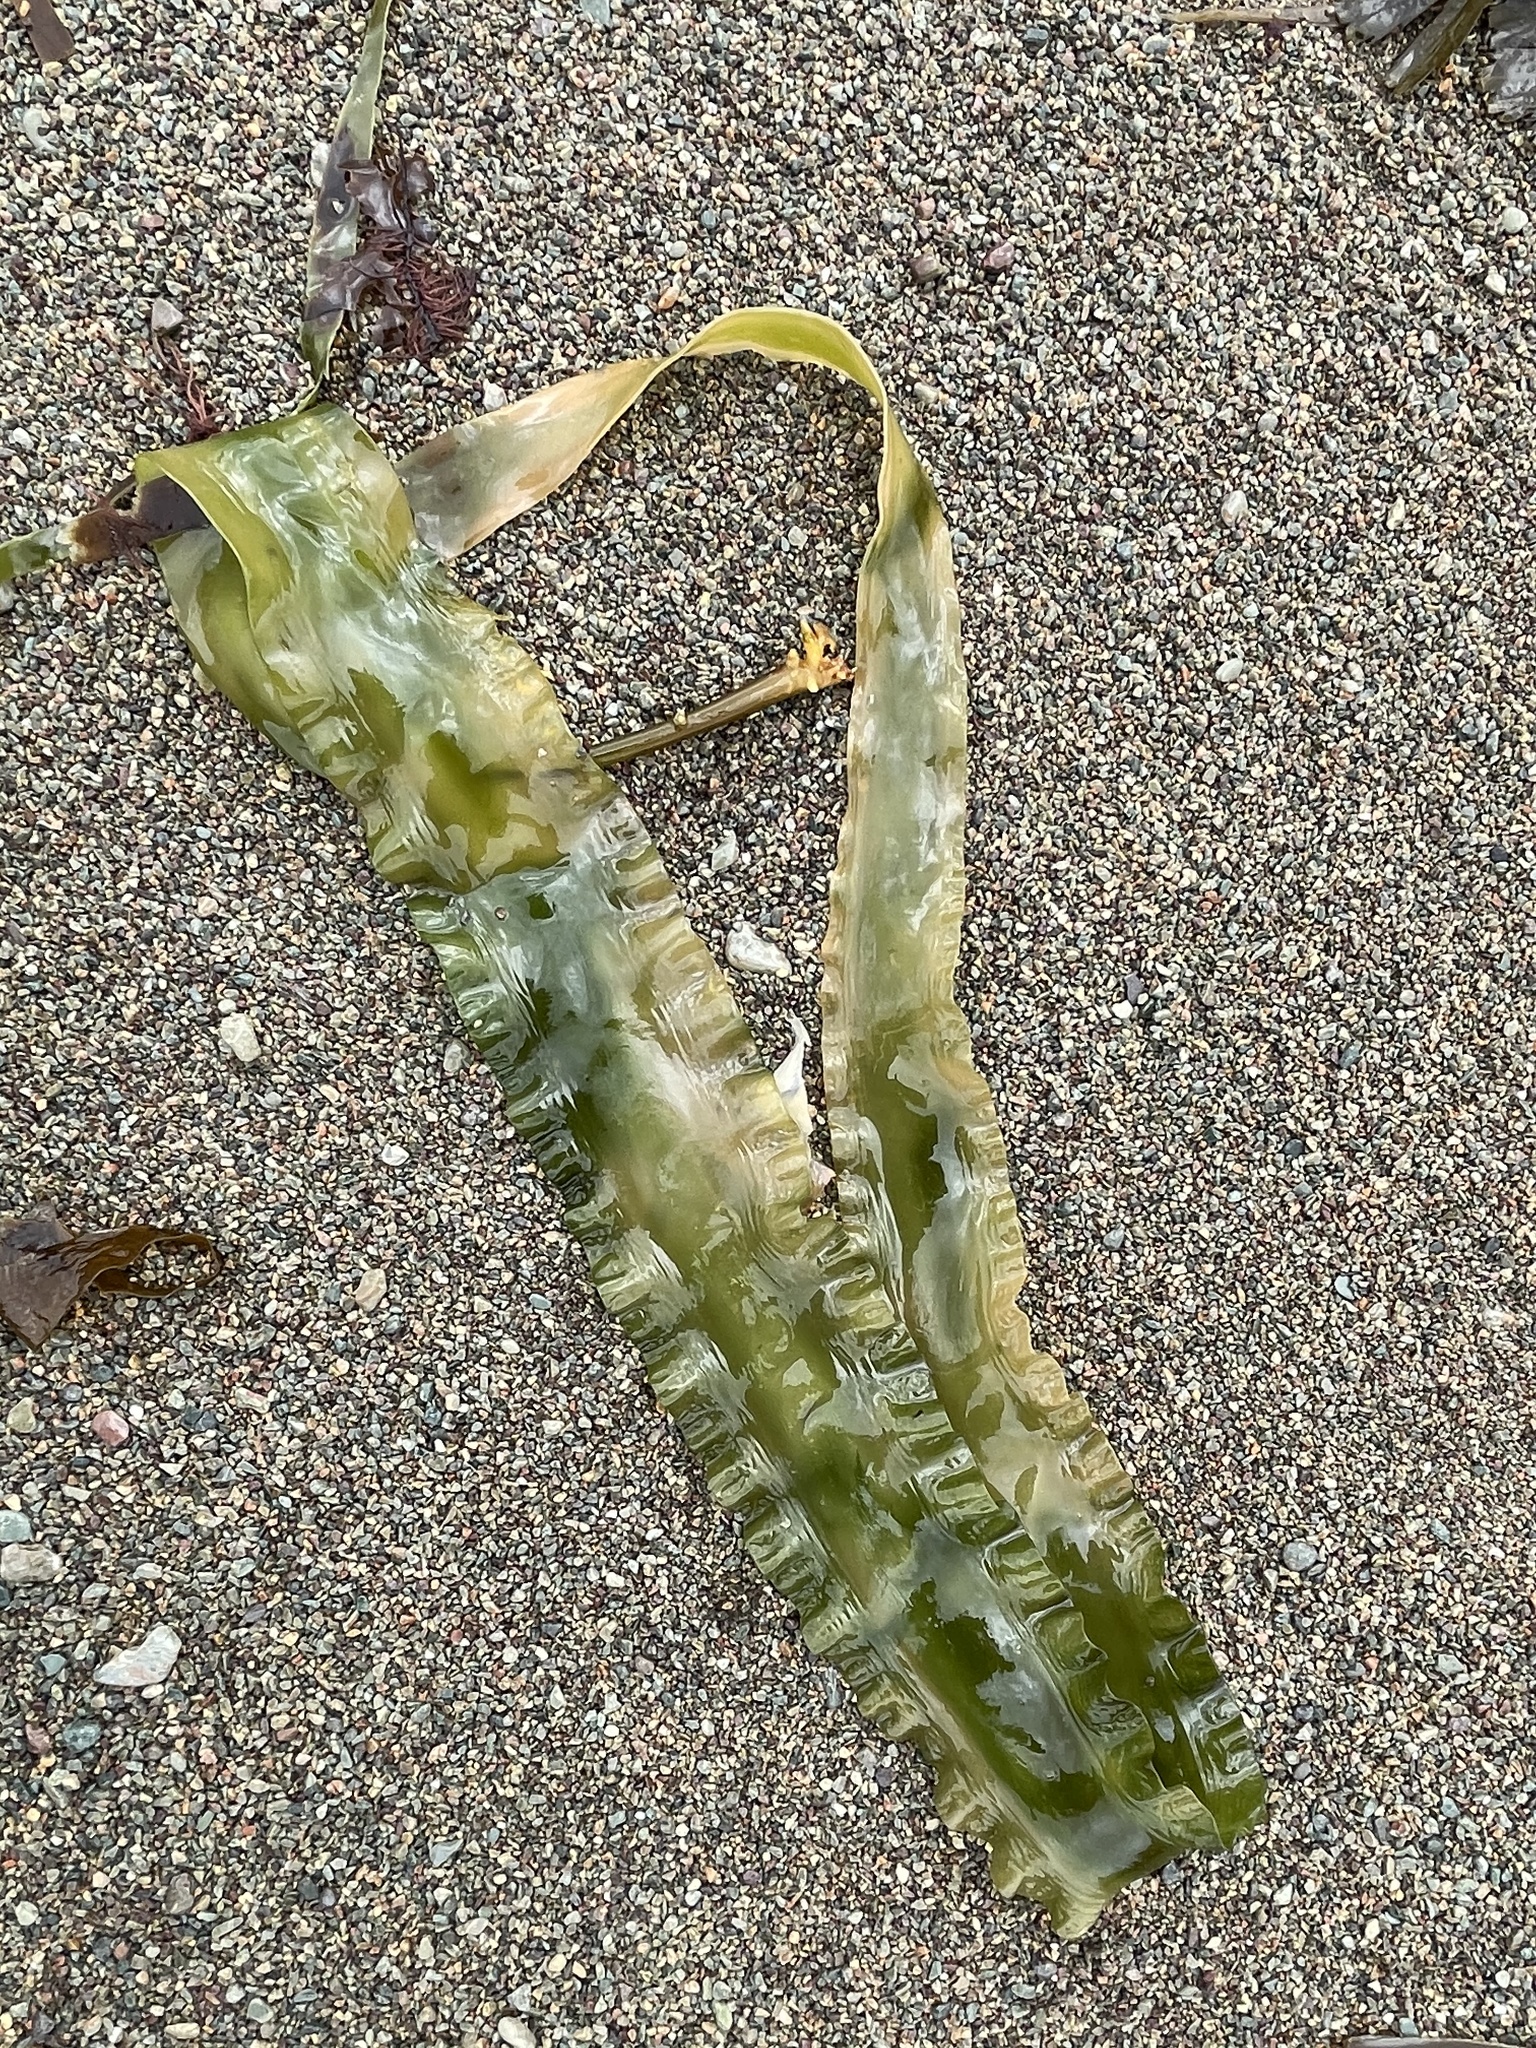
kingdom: Chromista
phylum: Ochrophyta
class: Phaeophyceae
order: Laminariales
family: Laminariaceae
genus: Saccharina
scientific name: Saccharina latissima
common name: Poor man's weather glass
